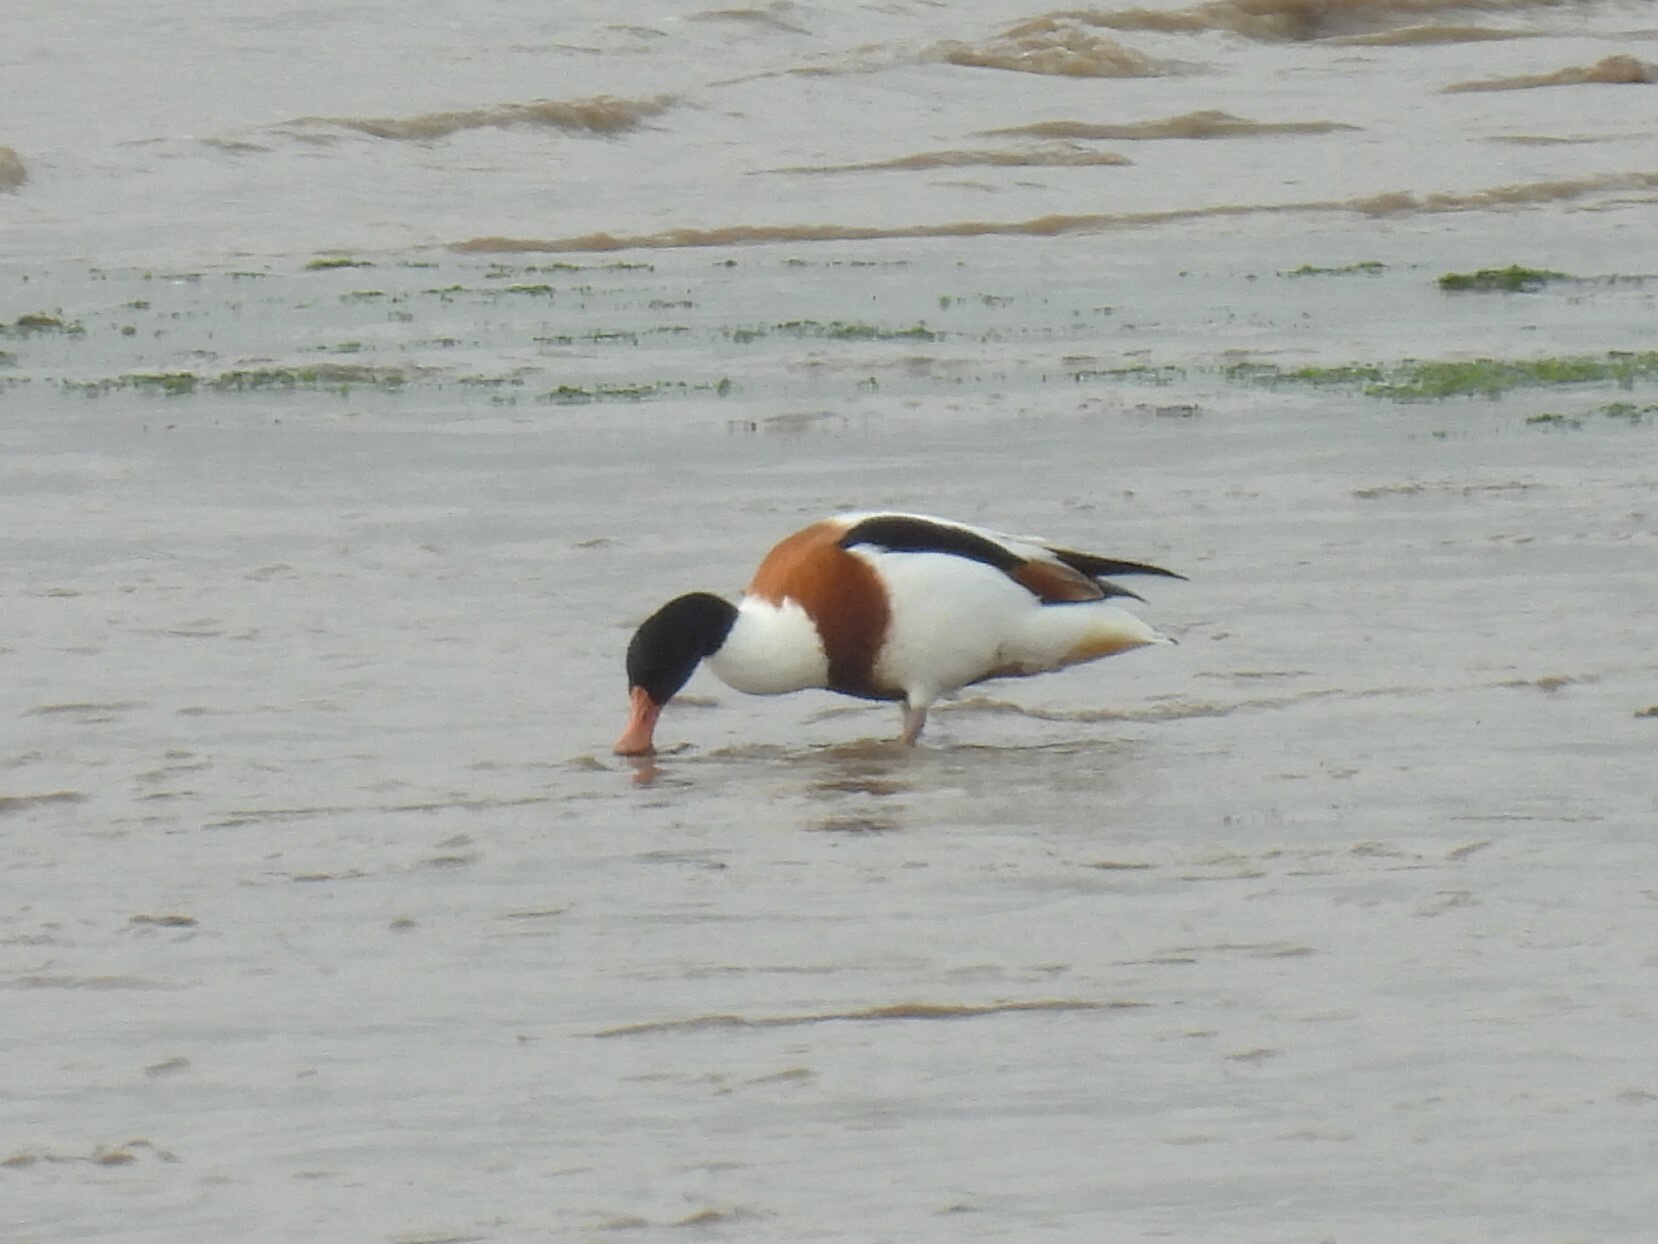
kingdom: Animalia
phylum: Chordata
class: Aves
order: Anseriformes
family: Anatidae
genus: Tadorna
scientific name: Tadorna tadorna
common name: Common shelduck
